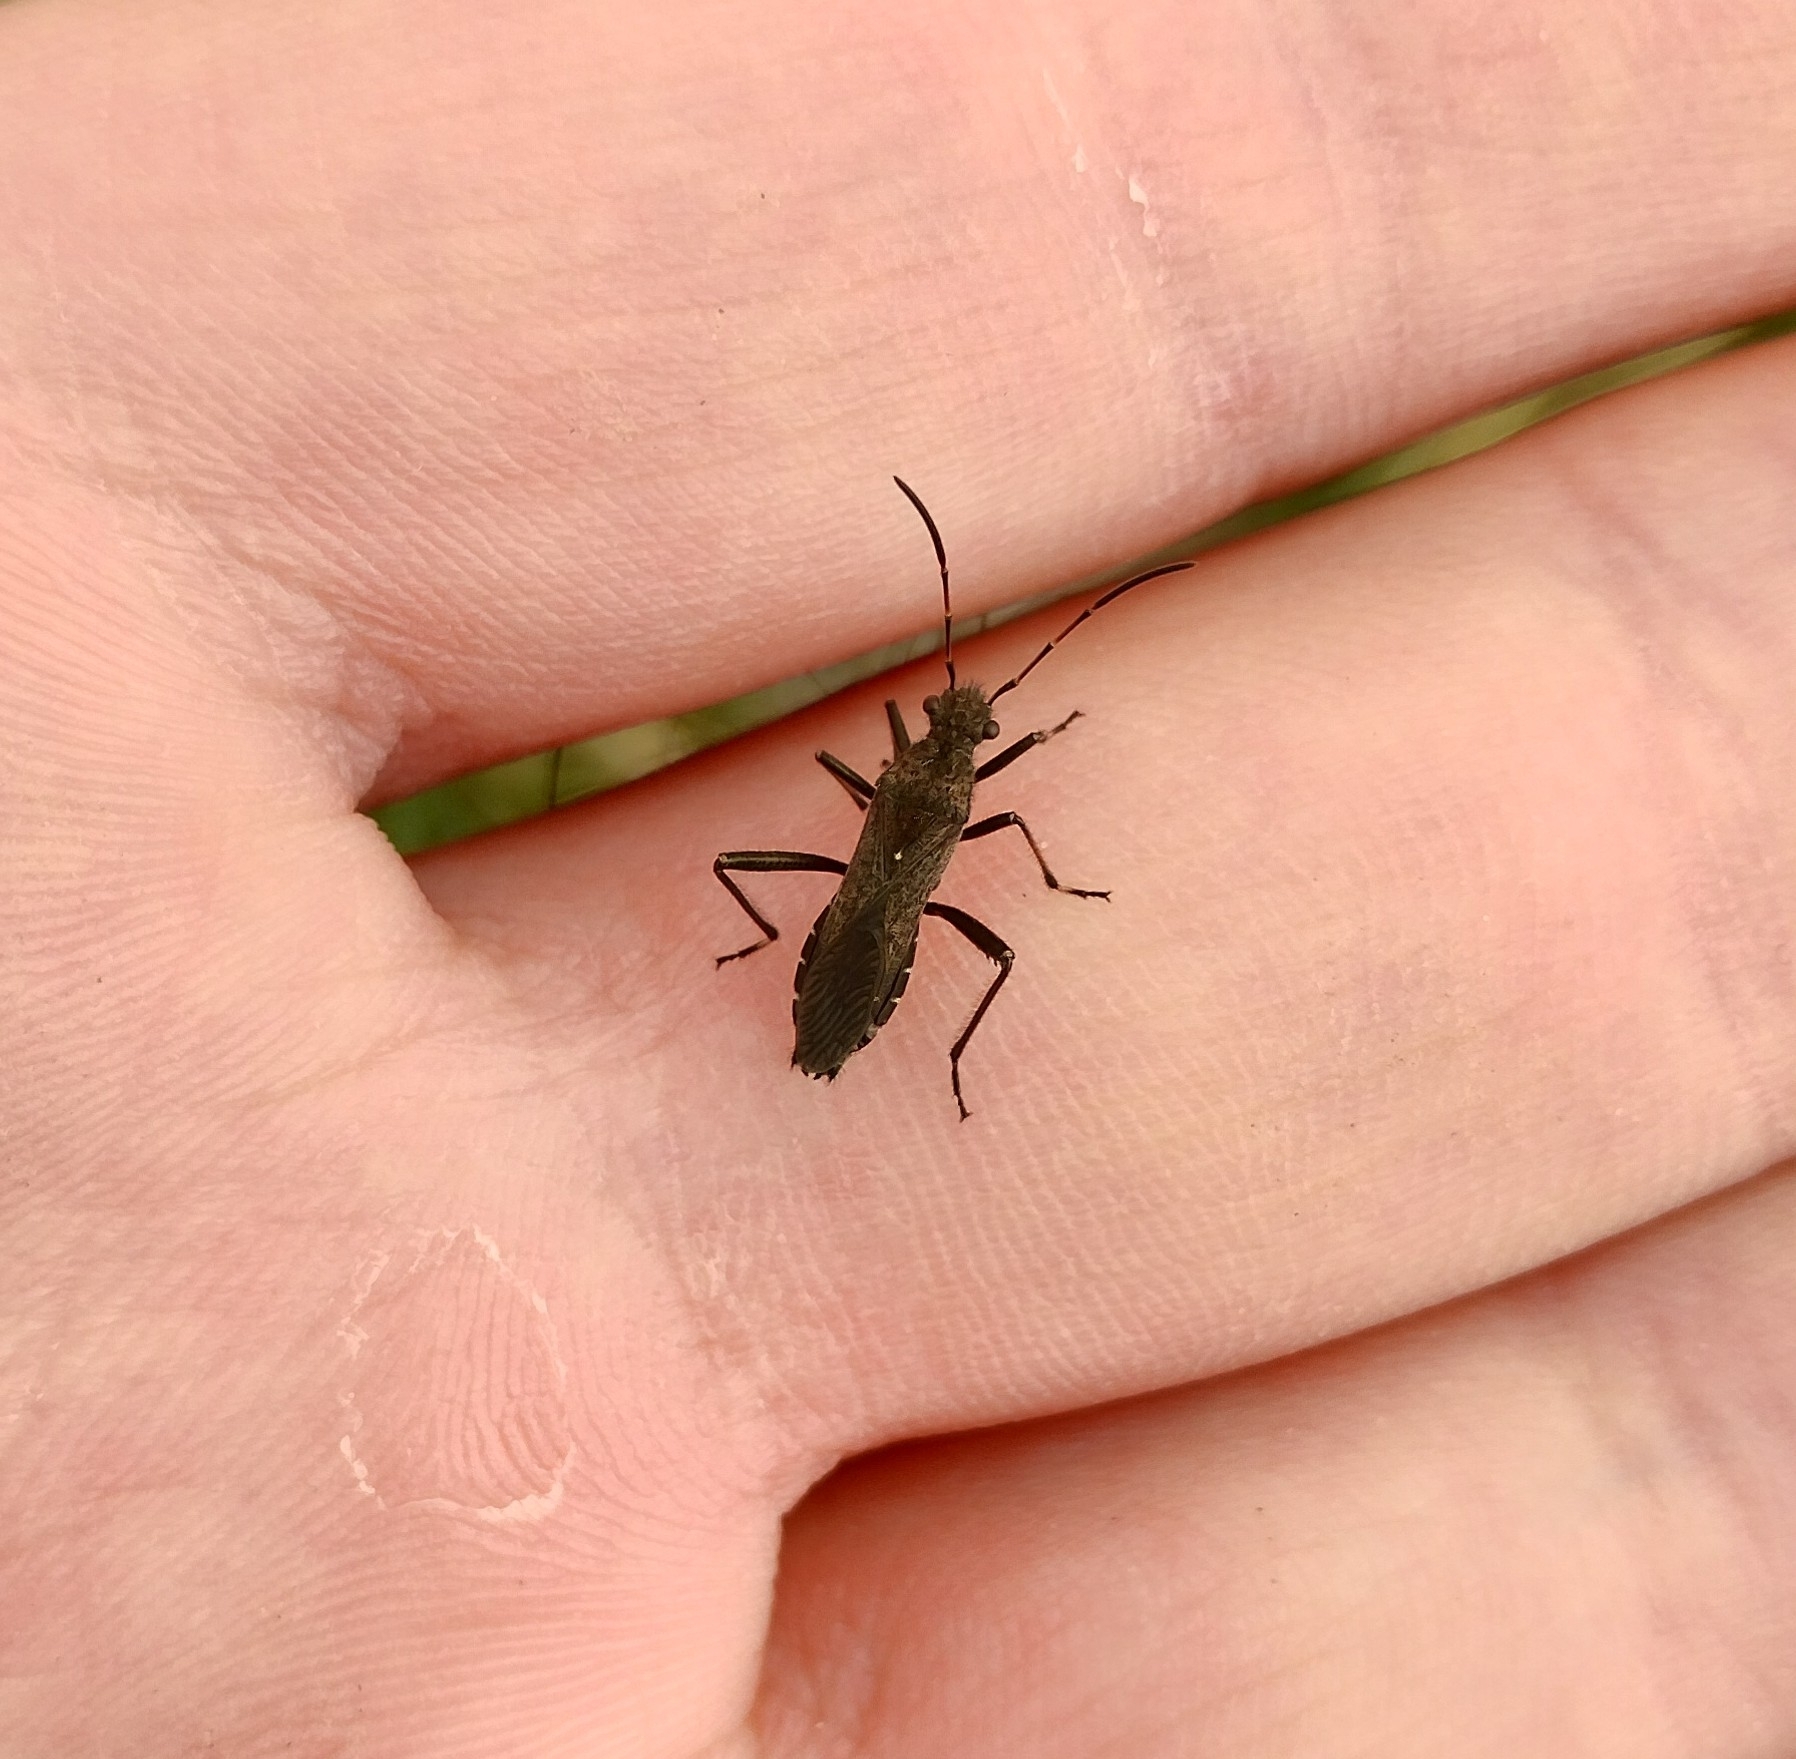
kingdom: Animalia
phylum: Arthropoda
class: Insecta
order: Hemiptera
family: Alydidae
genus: Alydus
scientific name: Alydus calcaratus
